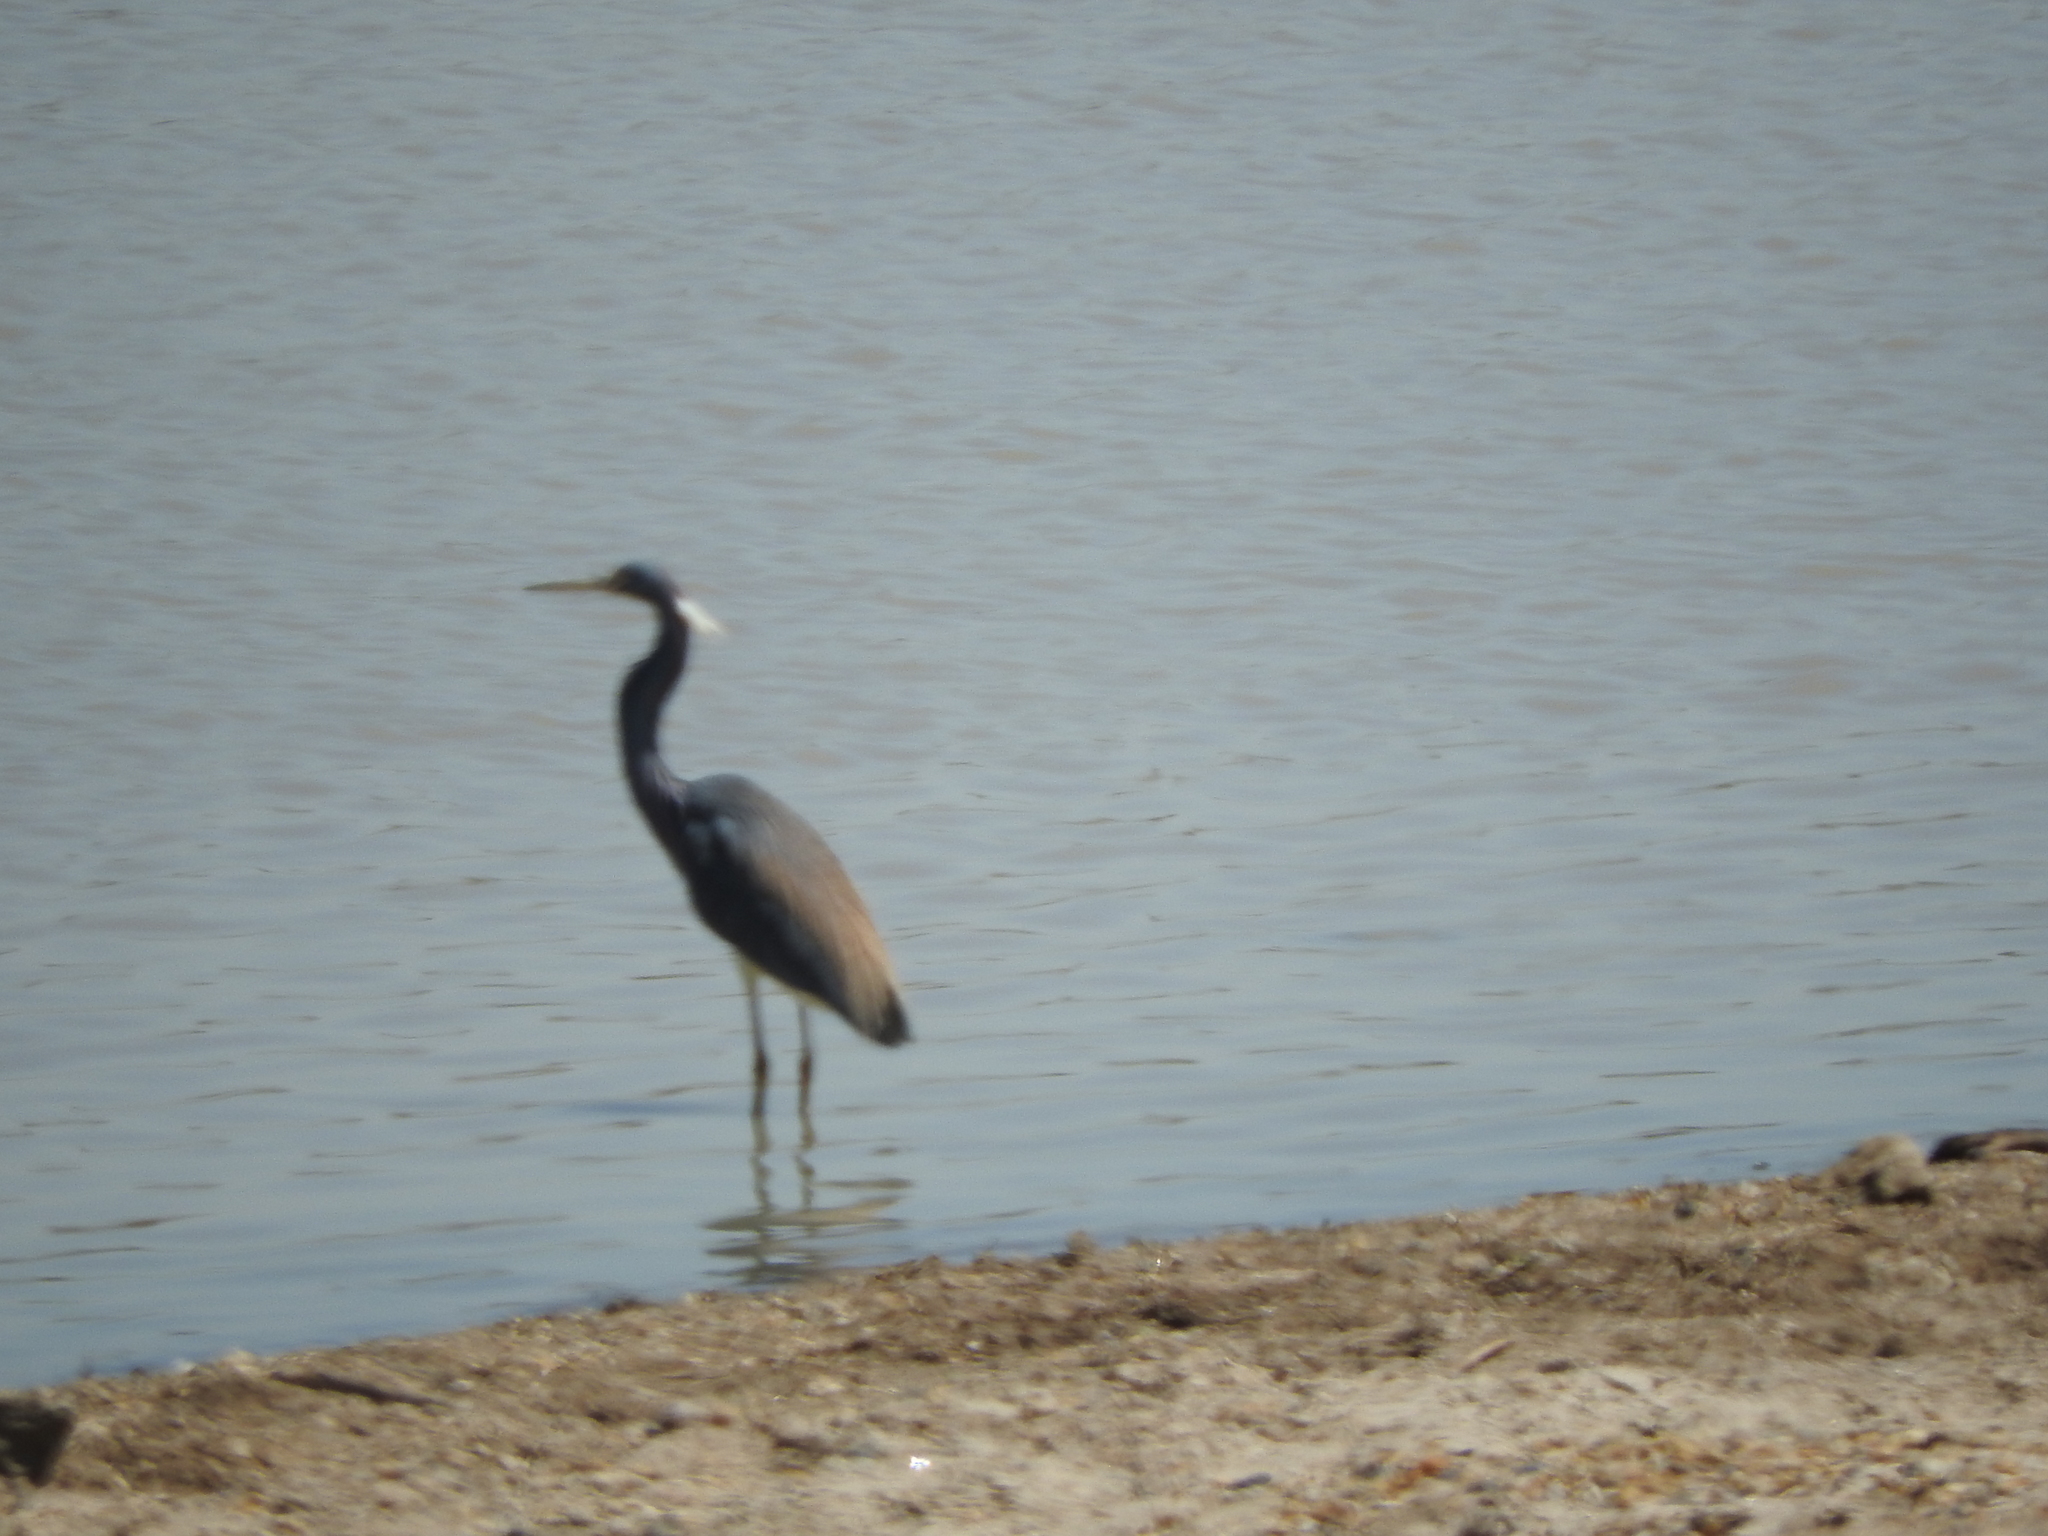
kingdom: Animalia
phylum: Chordata
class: Aves
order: Pelecaniformes
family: Ardeidae
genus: Egretta
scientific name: Egretta tricolor
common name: Tricolored heron
